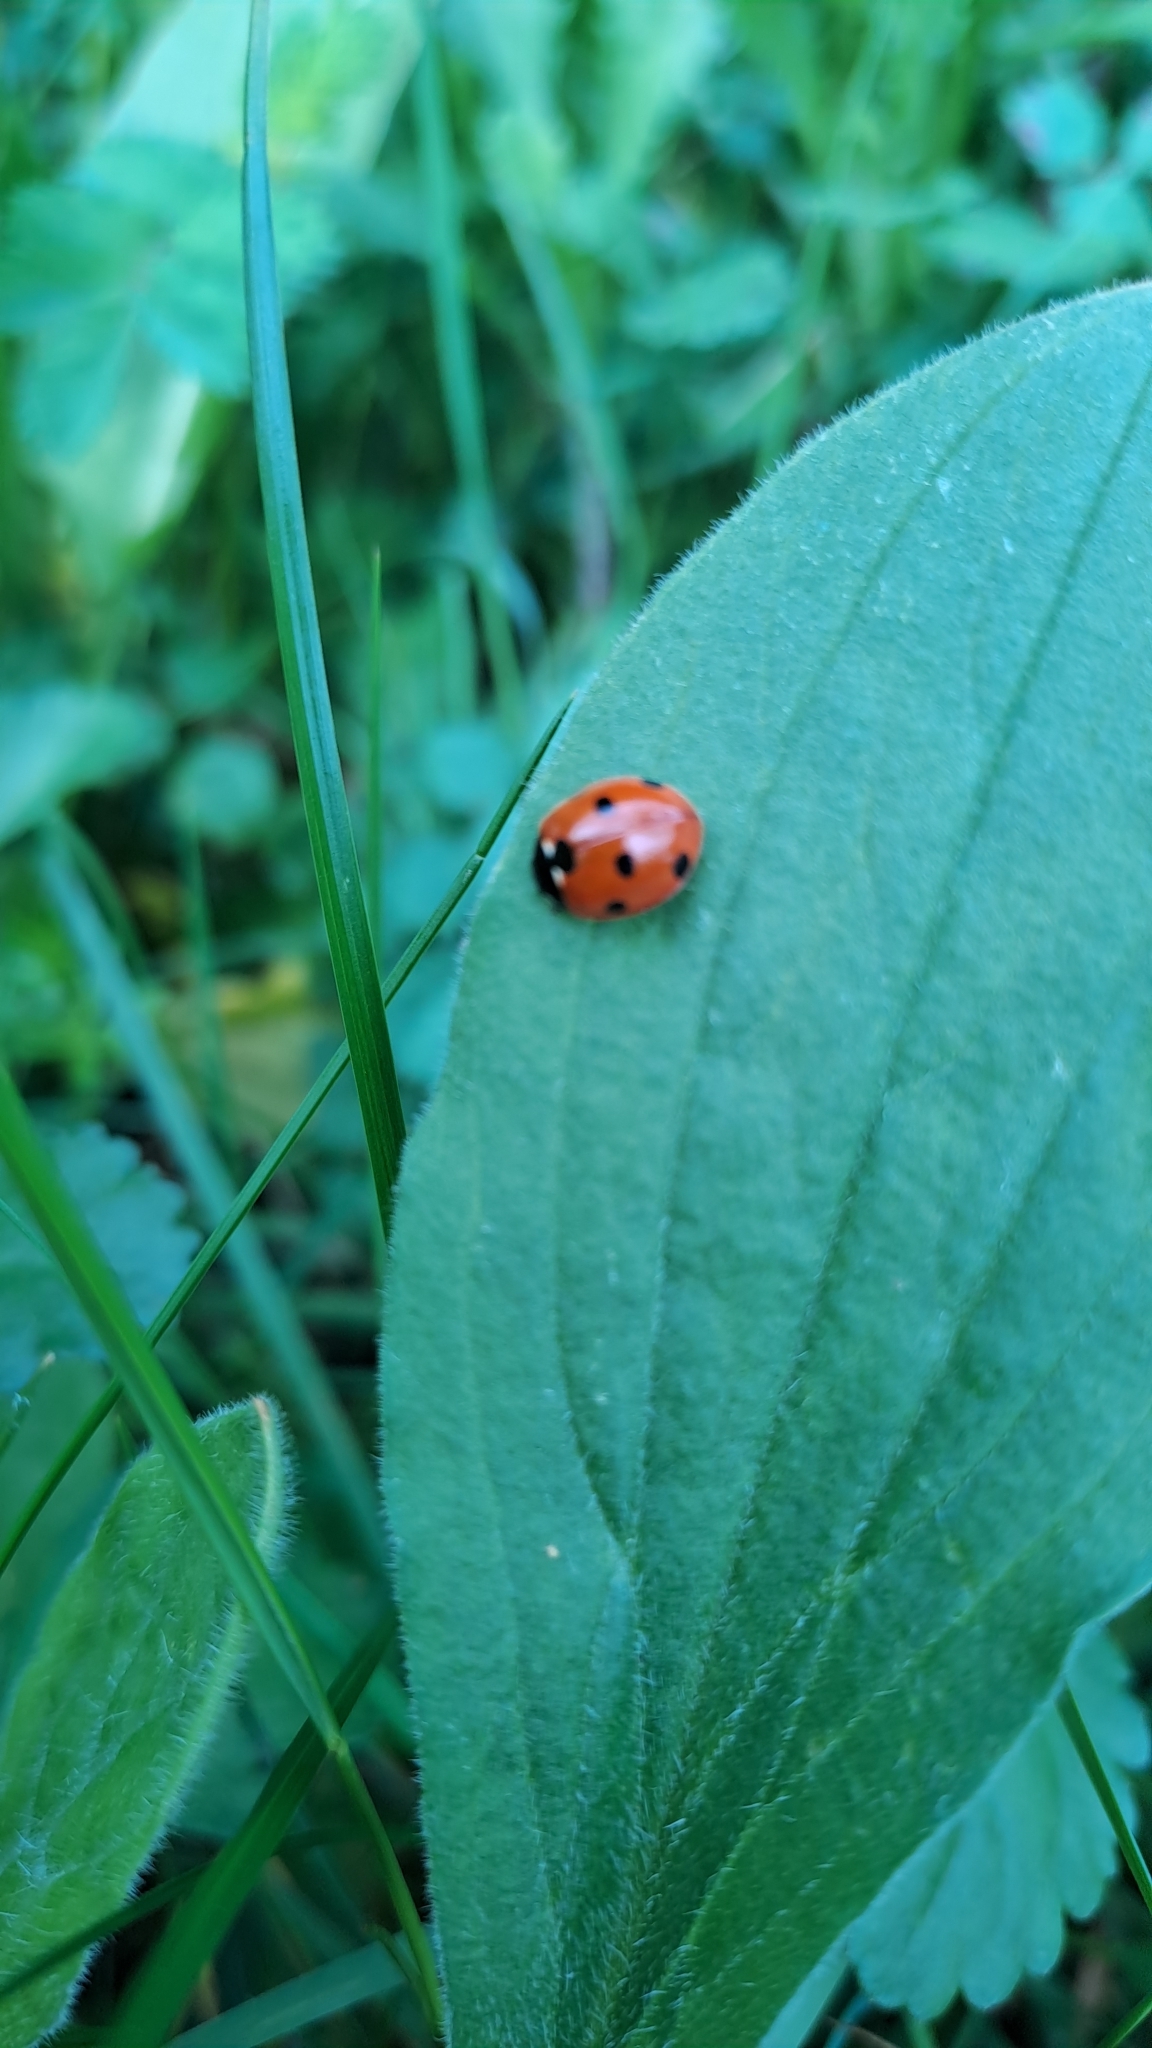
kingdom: Animalia
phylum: Arthropoda
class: Insecta
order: Coleoptera
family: Coccinellidae
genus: Coccinella
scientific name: Coccinella septempunctata
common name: Sevenspotted lady beetle
